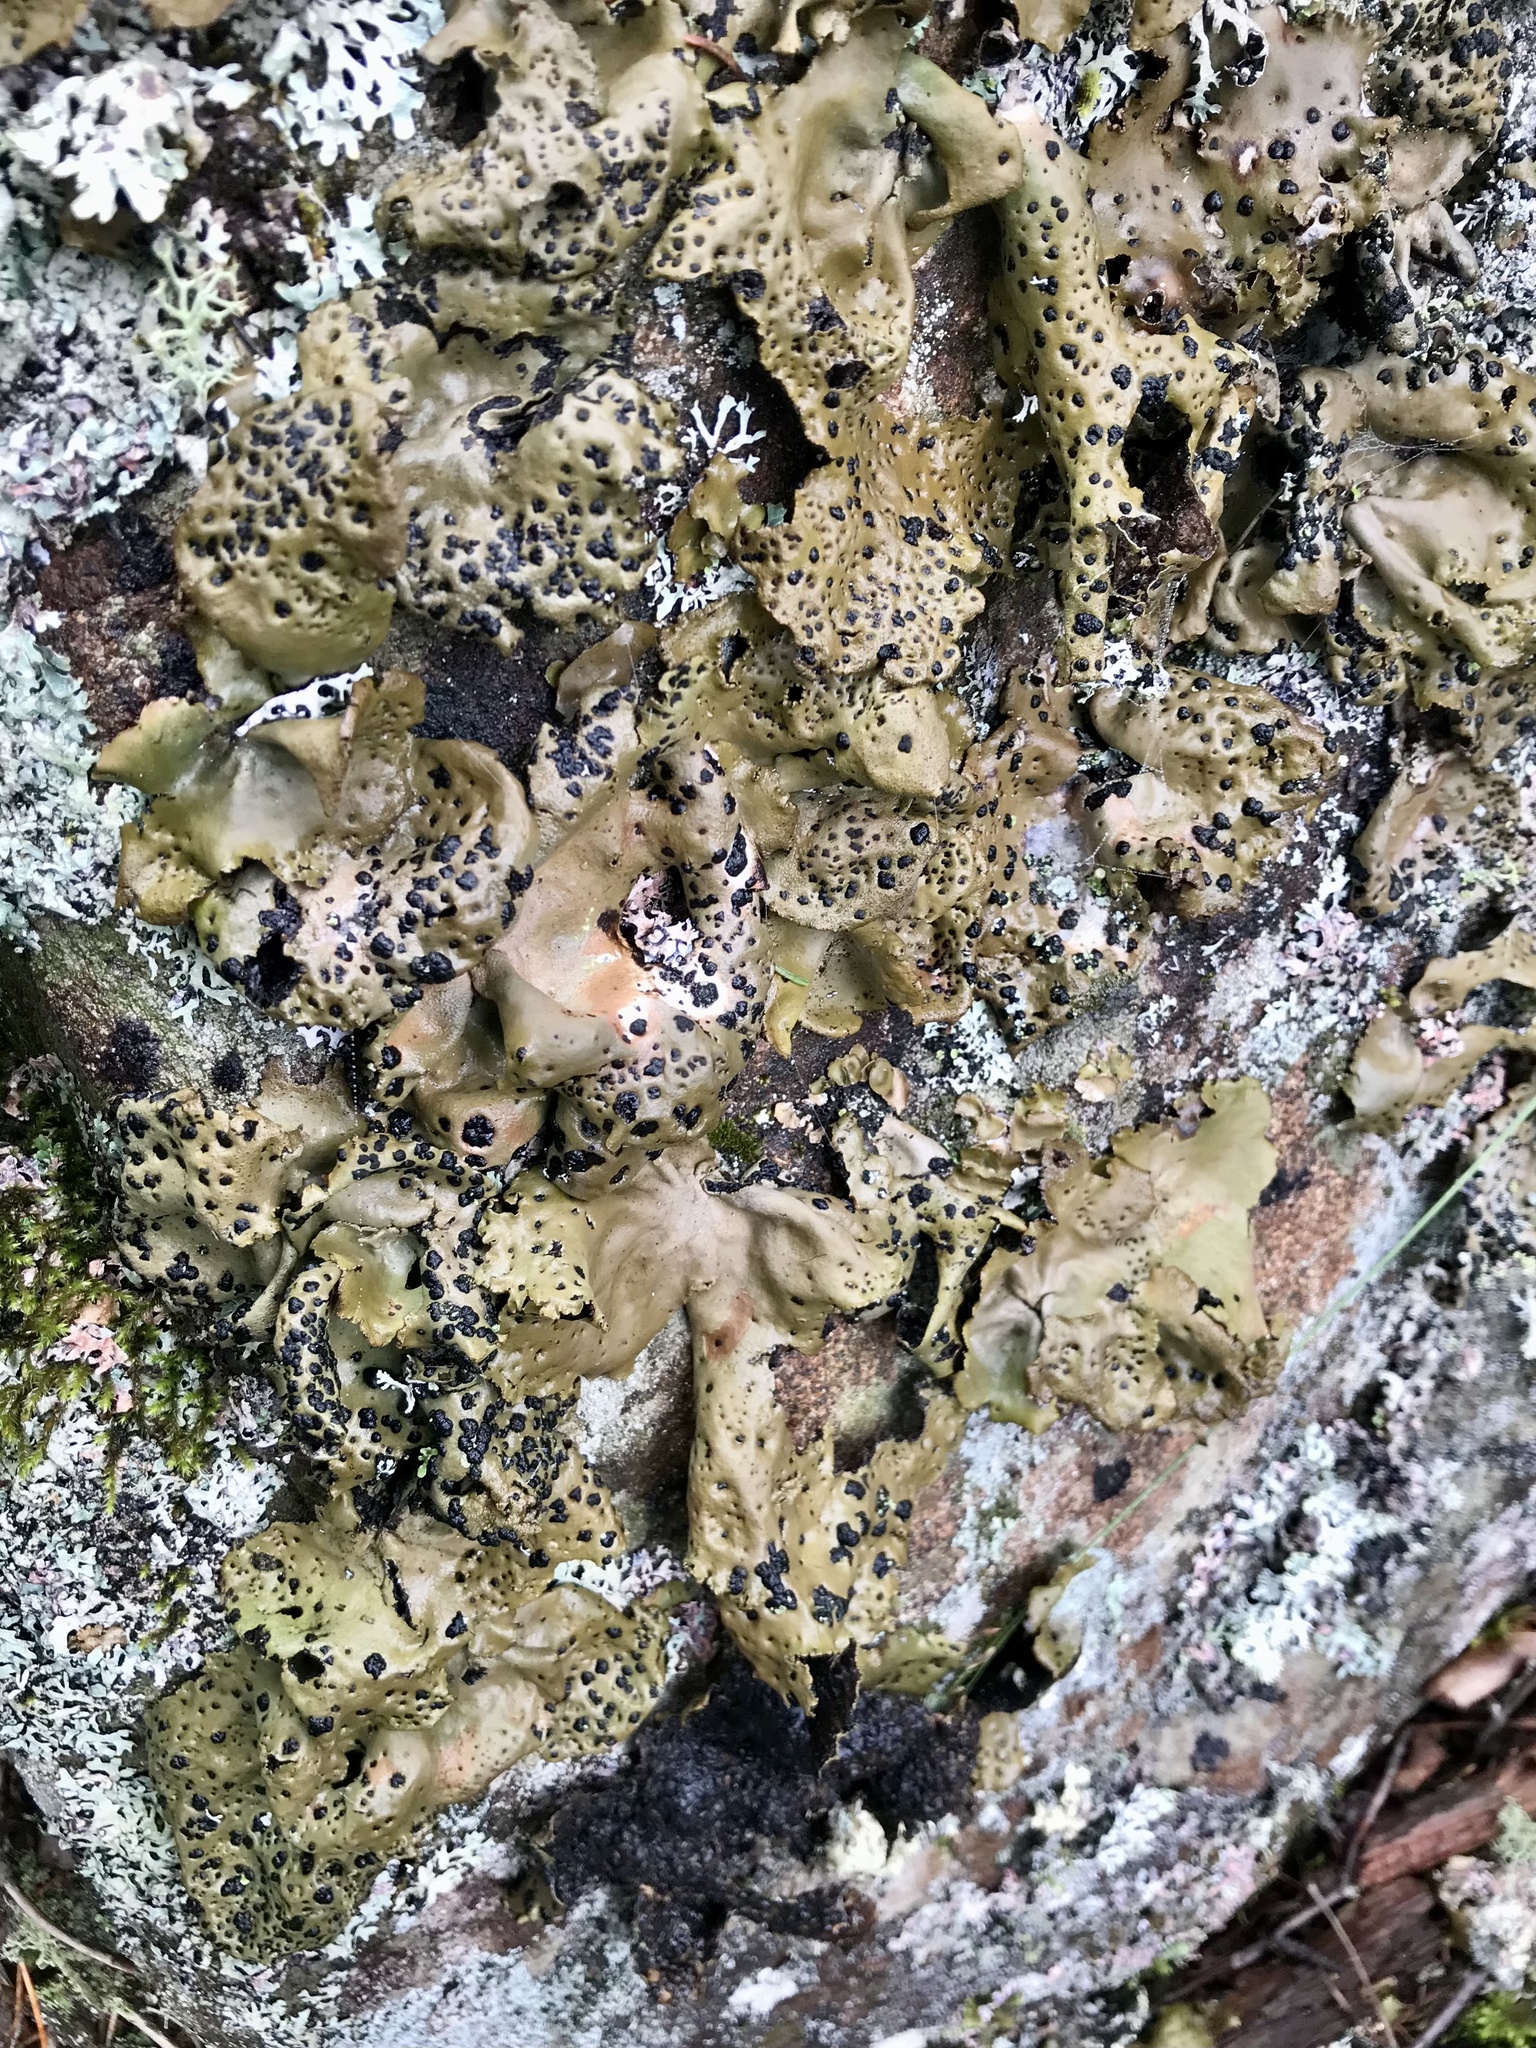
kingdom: Fungi
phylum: Ascomycota
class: Lecanoromycetes
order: Umbilicariales
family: Umbilicariaceae
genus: Umbilicaria
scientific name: Umbilicaria muhlenbergii
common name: Lesser rocktripe
